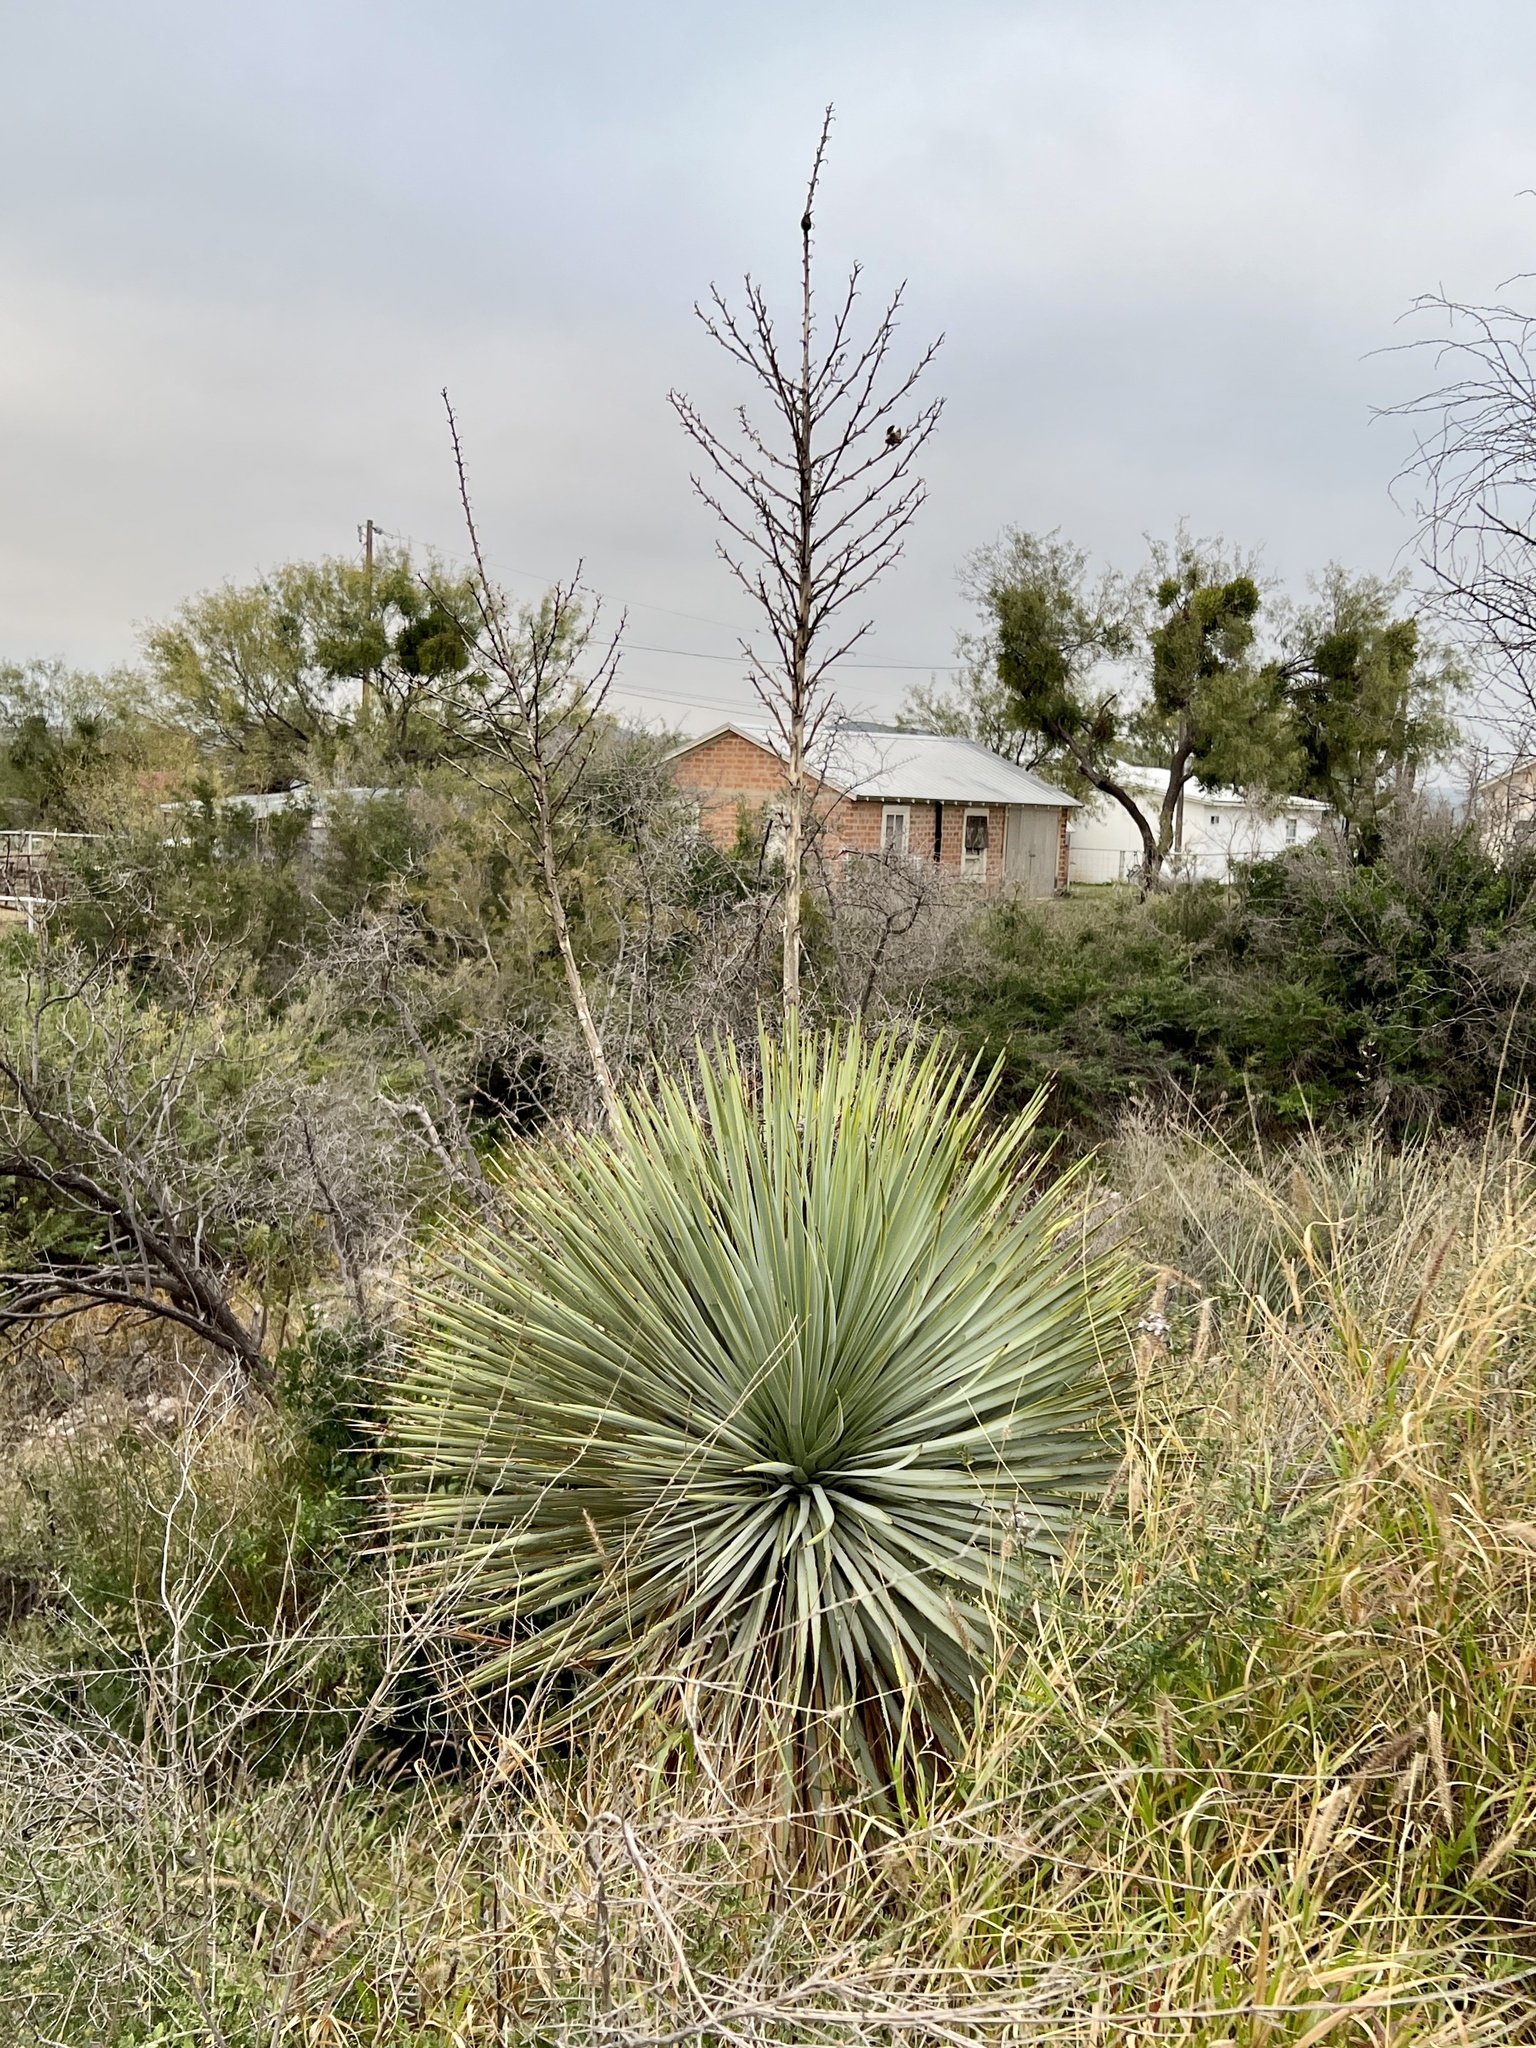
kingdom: Plantae
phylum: Tracheophyta
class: Liliopsida
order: Asparagales
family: Asparagaceae
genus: Yucca
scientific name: Yucca thompsoniana
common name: Trans-pecos yucca
